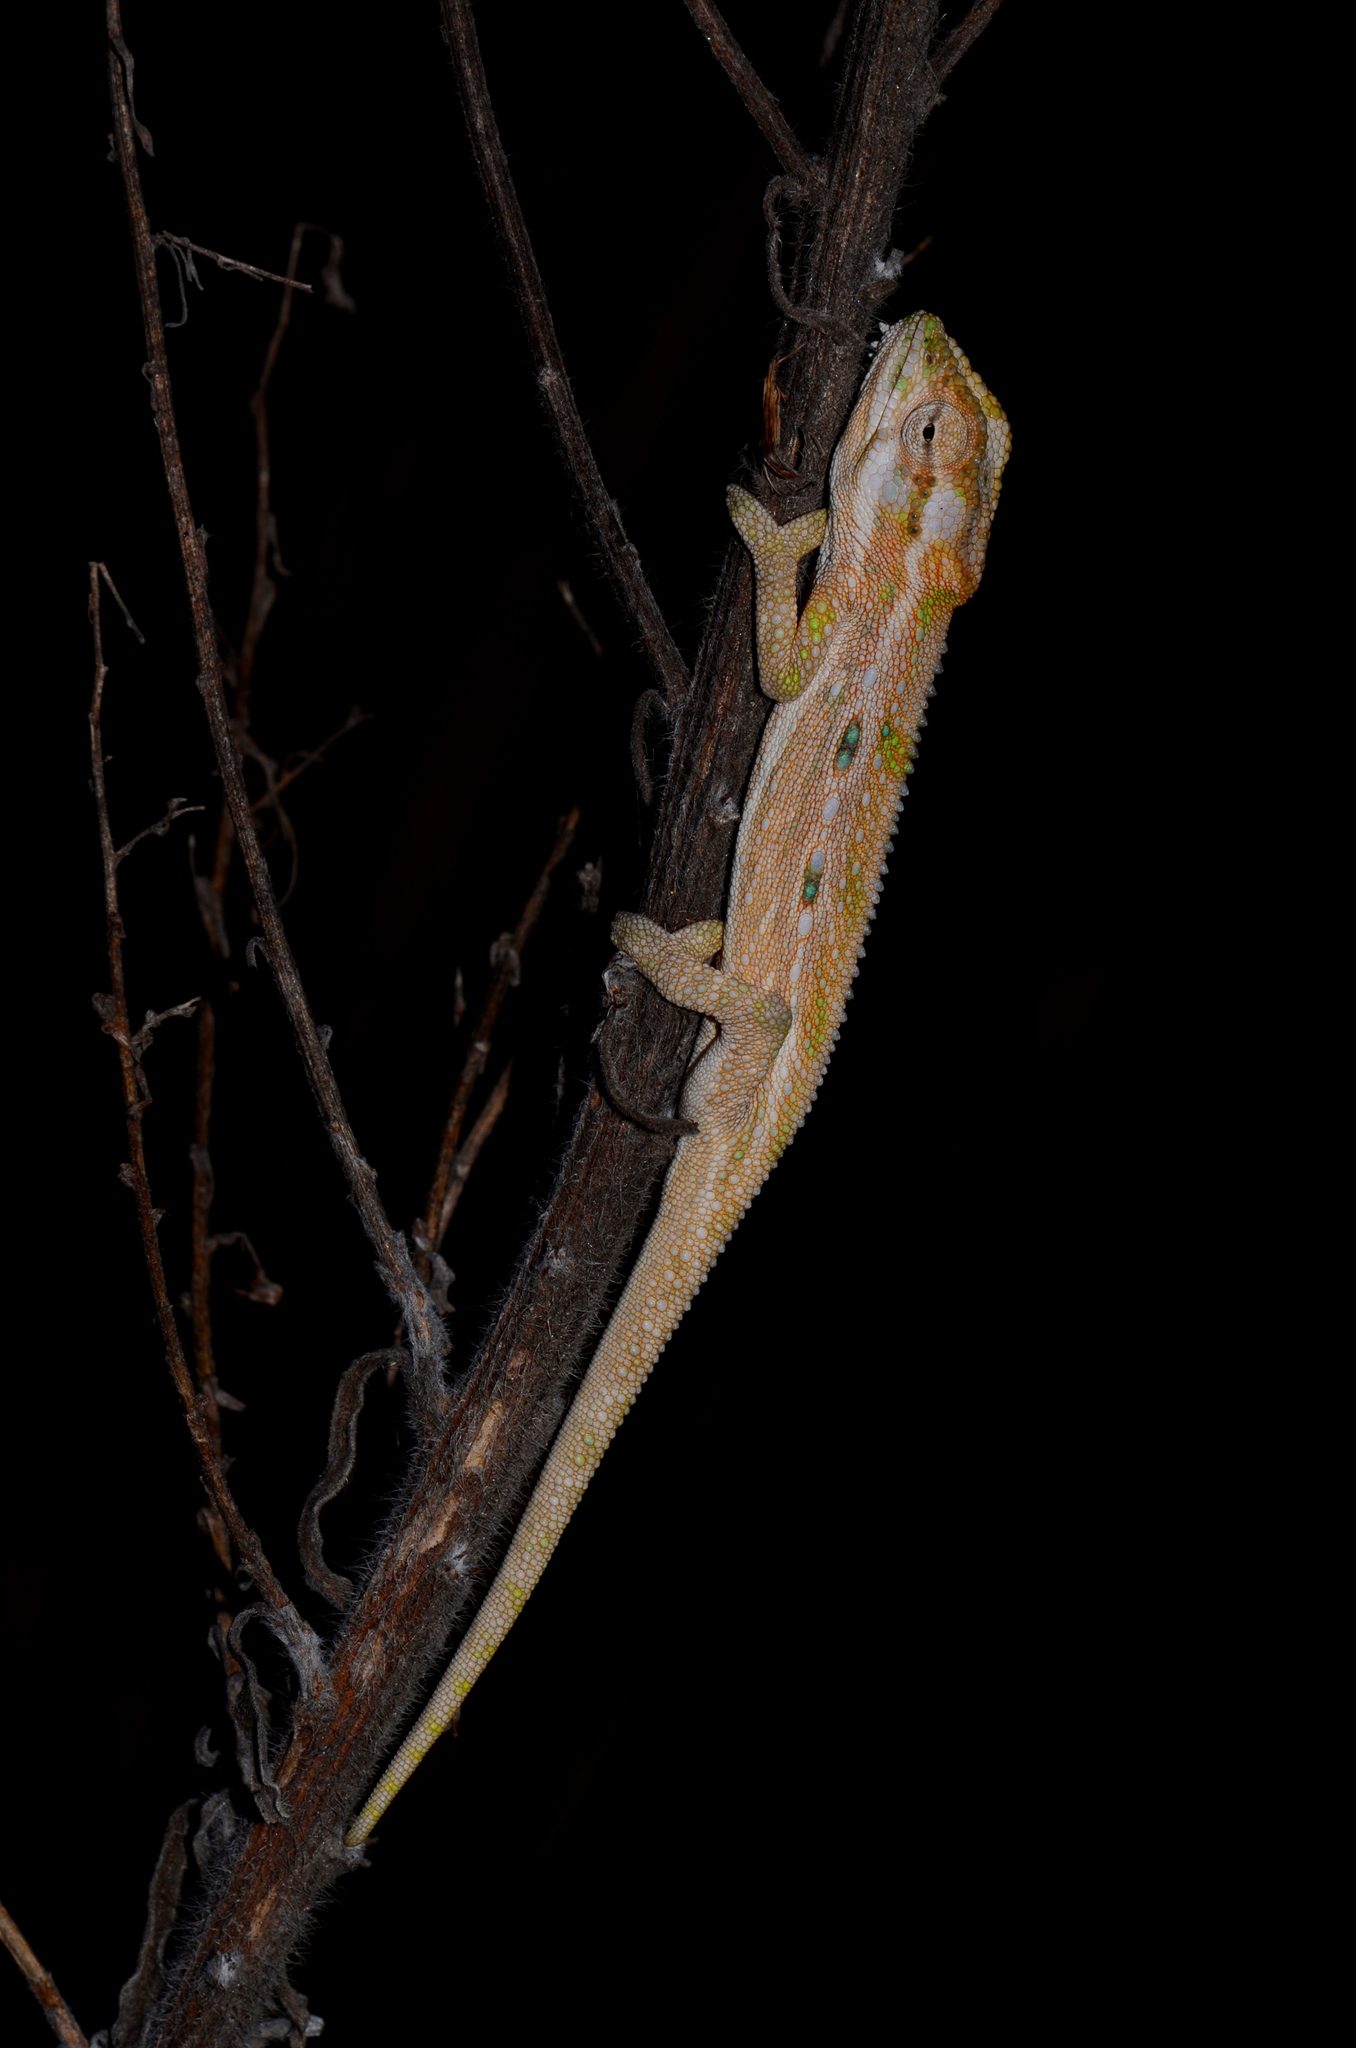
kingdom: Animalia
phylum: Chordata
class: Squamata
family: Chamaeleonidae
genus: Bradypodion
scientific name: Bradypodion pumilum
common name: Cape dwarf chameleon
